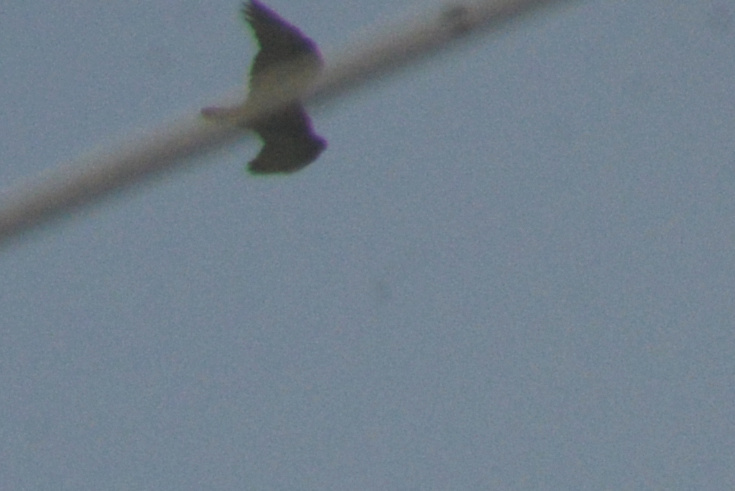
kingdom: Animalia
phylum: Chordata
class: Aves
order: Accipitriformes
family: Cathartidae
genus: Cathartes
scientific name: Cathartes aura
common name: Turkey vulture
